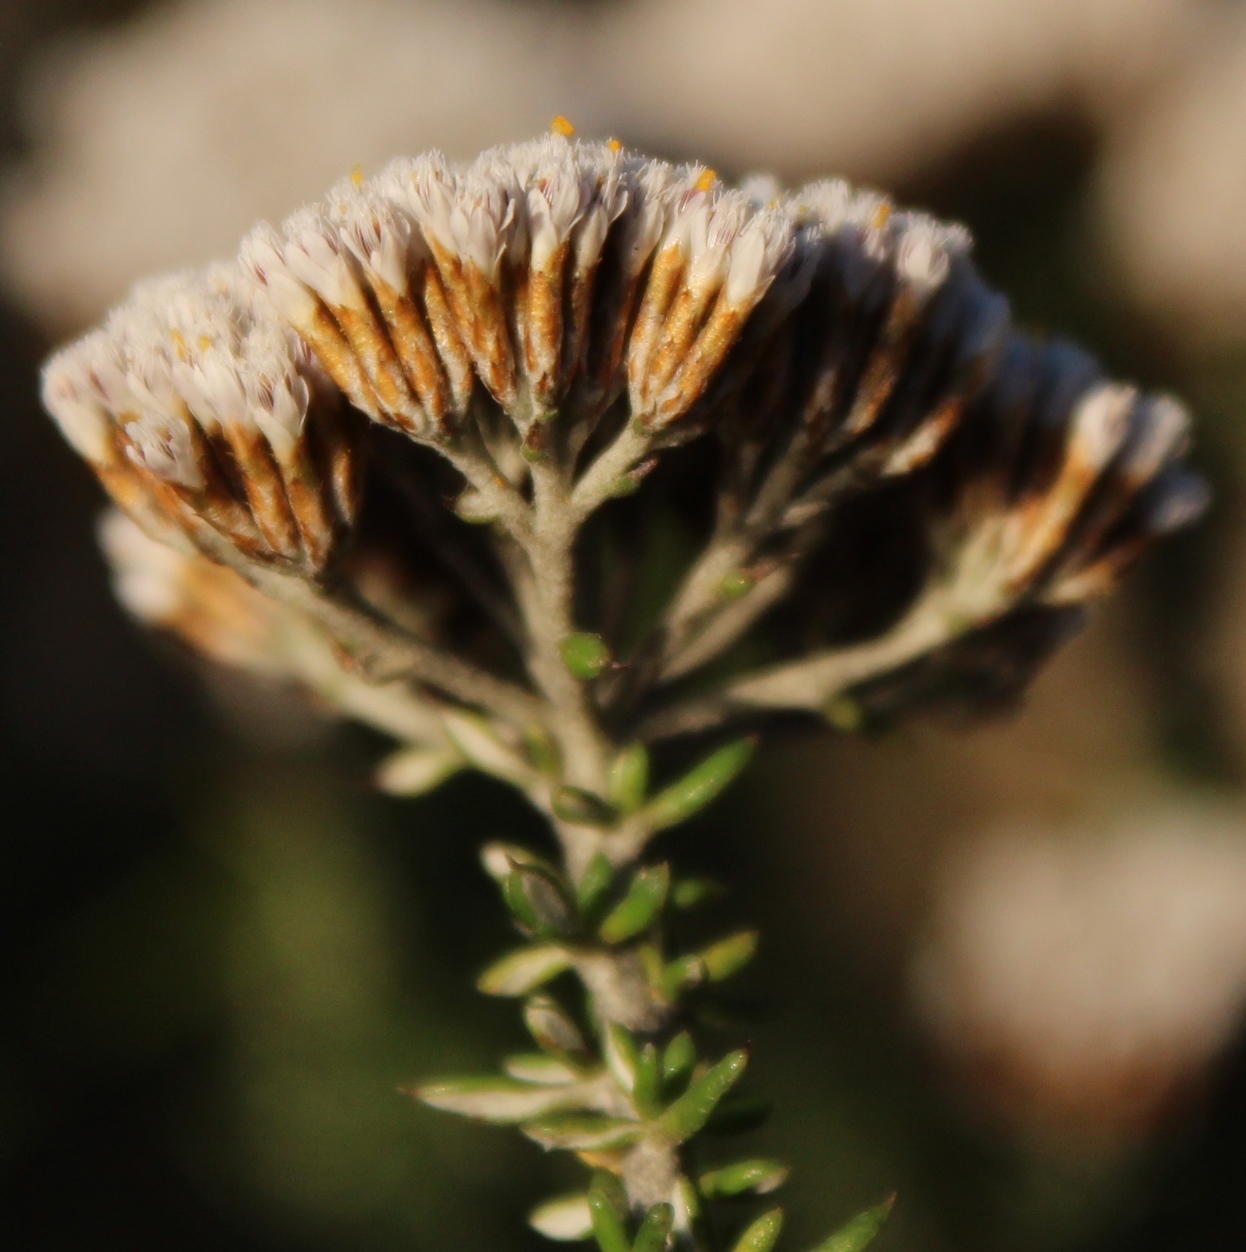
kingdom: Plantae
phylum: Tracheophyta
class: Magnoliopsida
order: Asterales
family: Asteraceae
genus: Metalasia
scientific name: Metalasia densa
